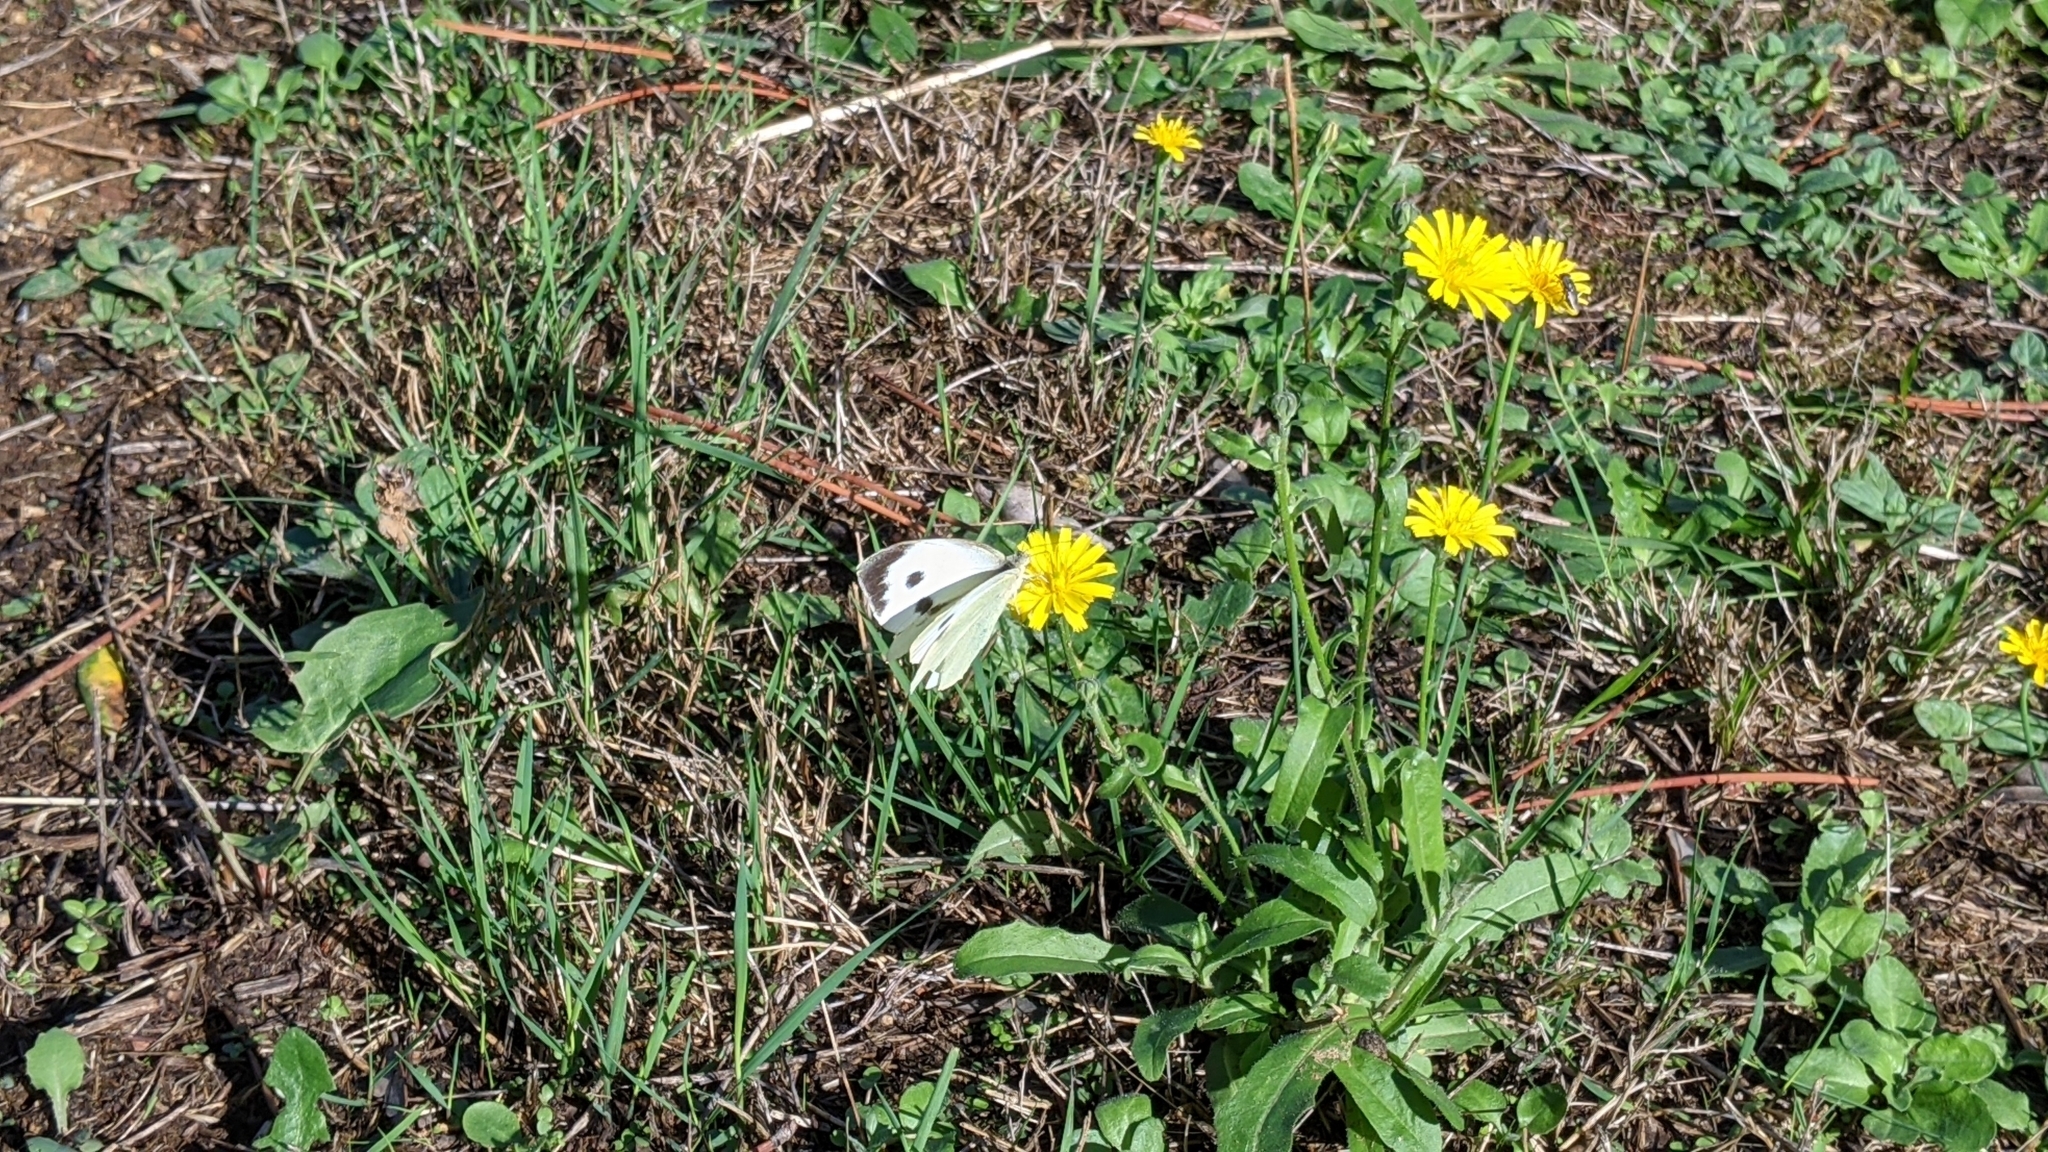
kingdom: Animalia
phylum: Arthropoda
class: Insecta
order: Lepidoptera
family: Pieridae
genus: Pieris
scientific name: Pieris brassicae
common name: Large white
